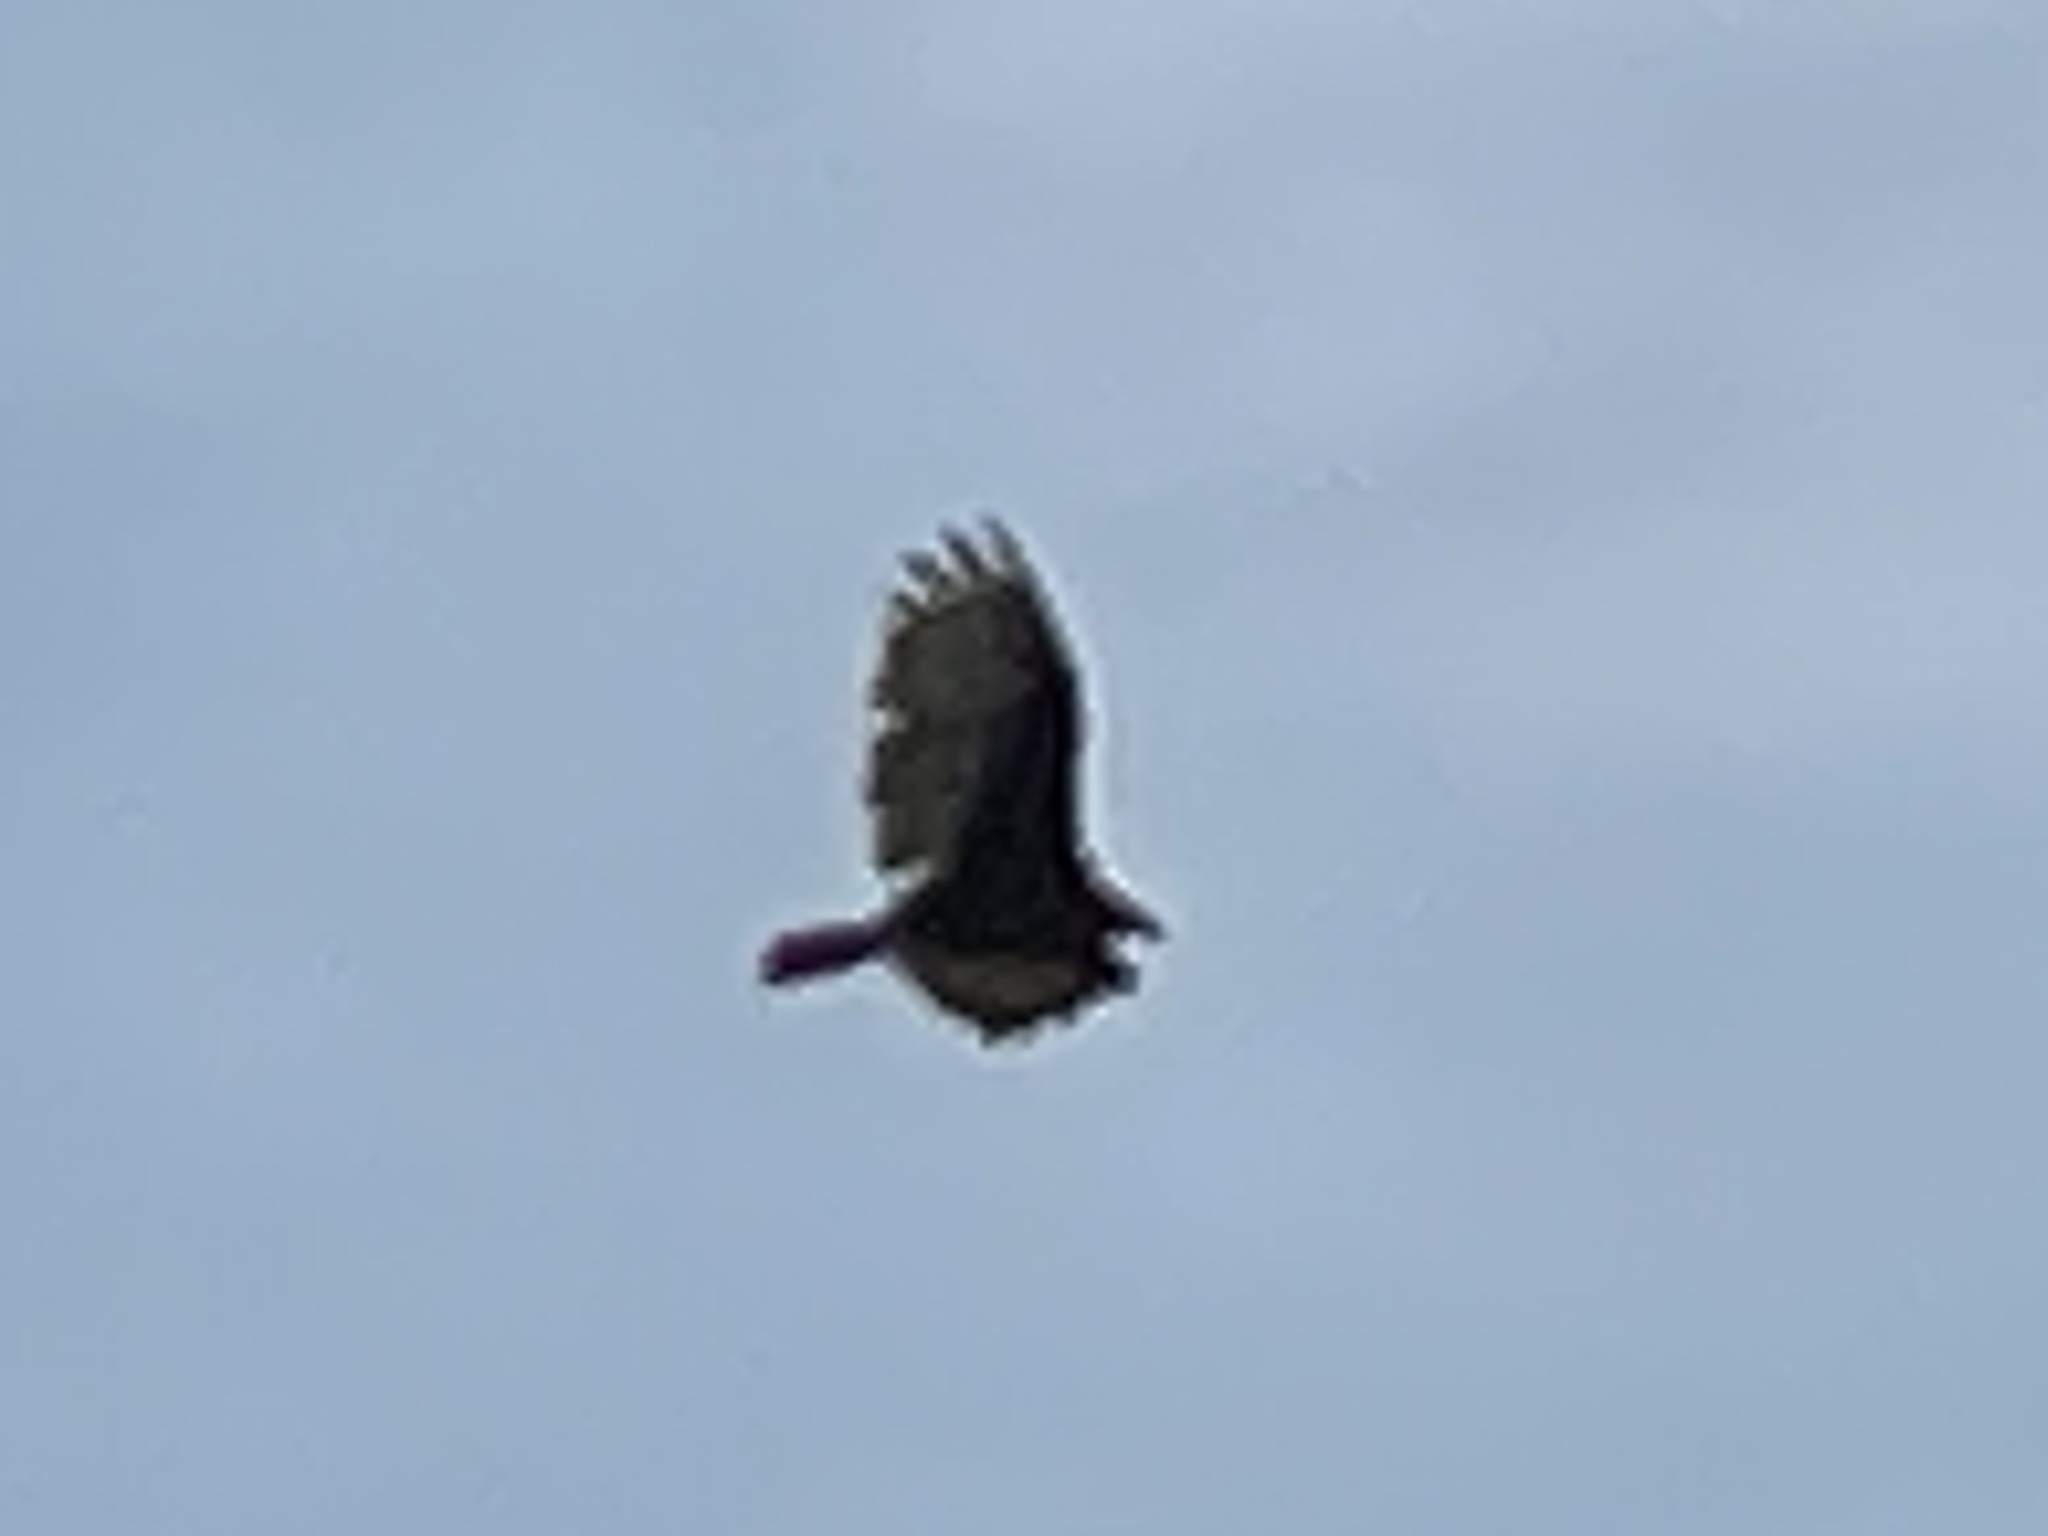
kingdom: Animalia
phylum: Chordata
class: Aves
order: Accipitriformes
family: Cathartidae
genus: Cathartes
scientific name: Cathartes aura
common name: Turkey vulture
